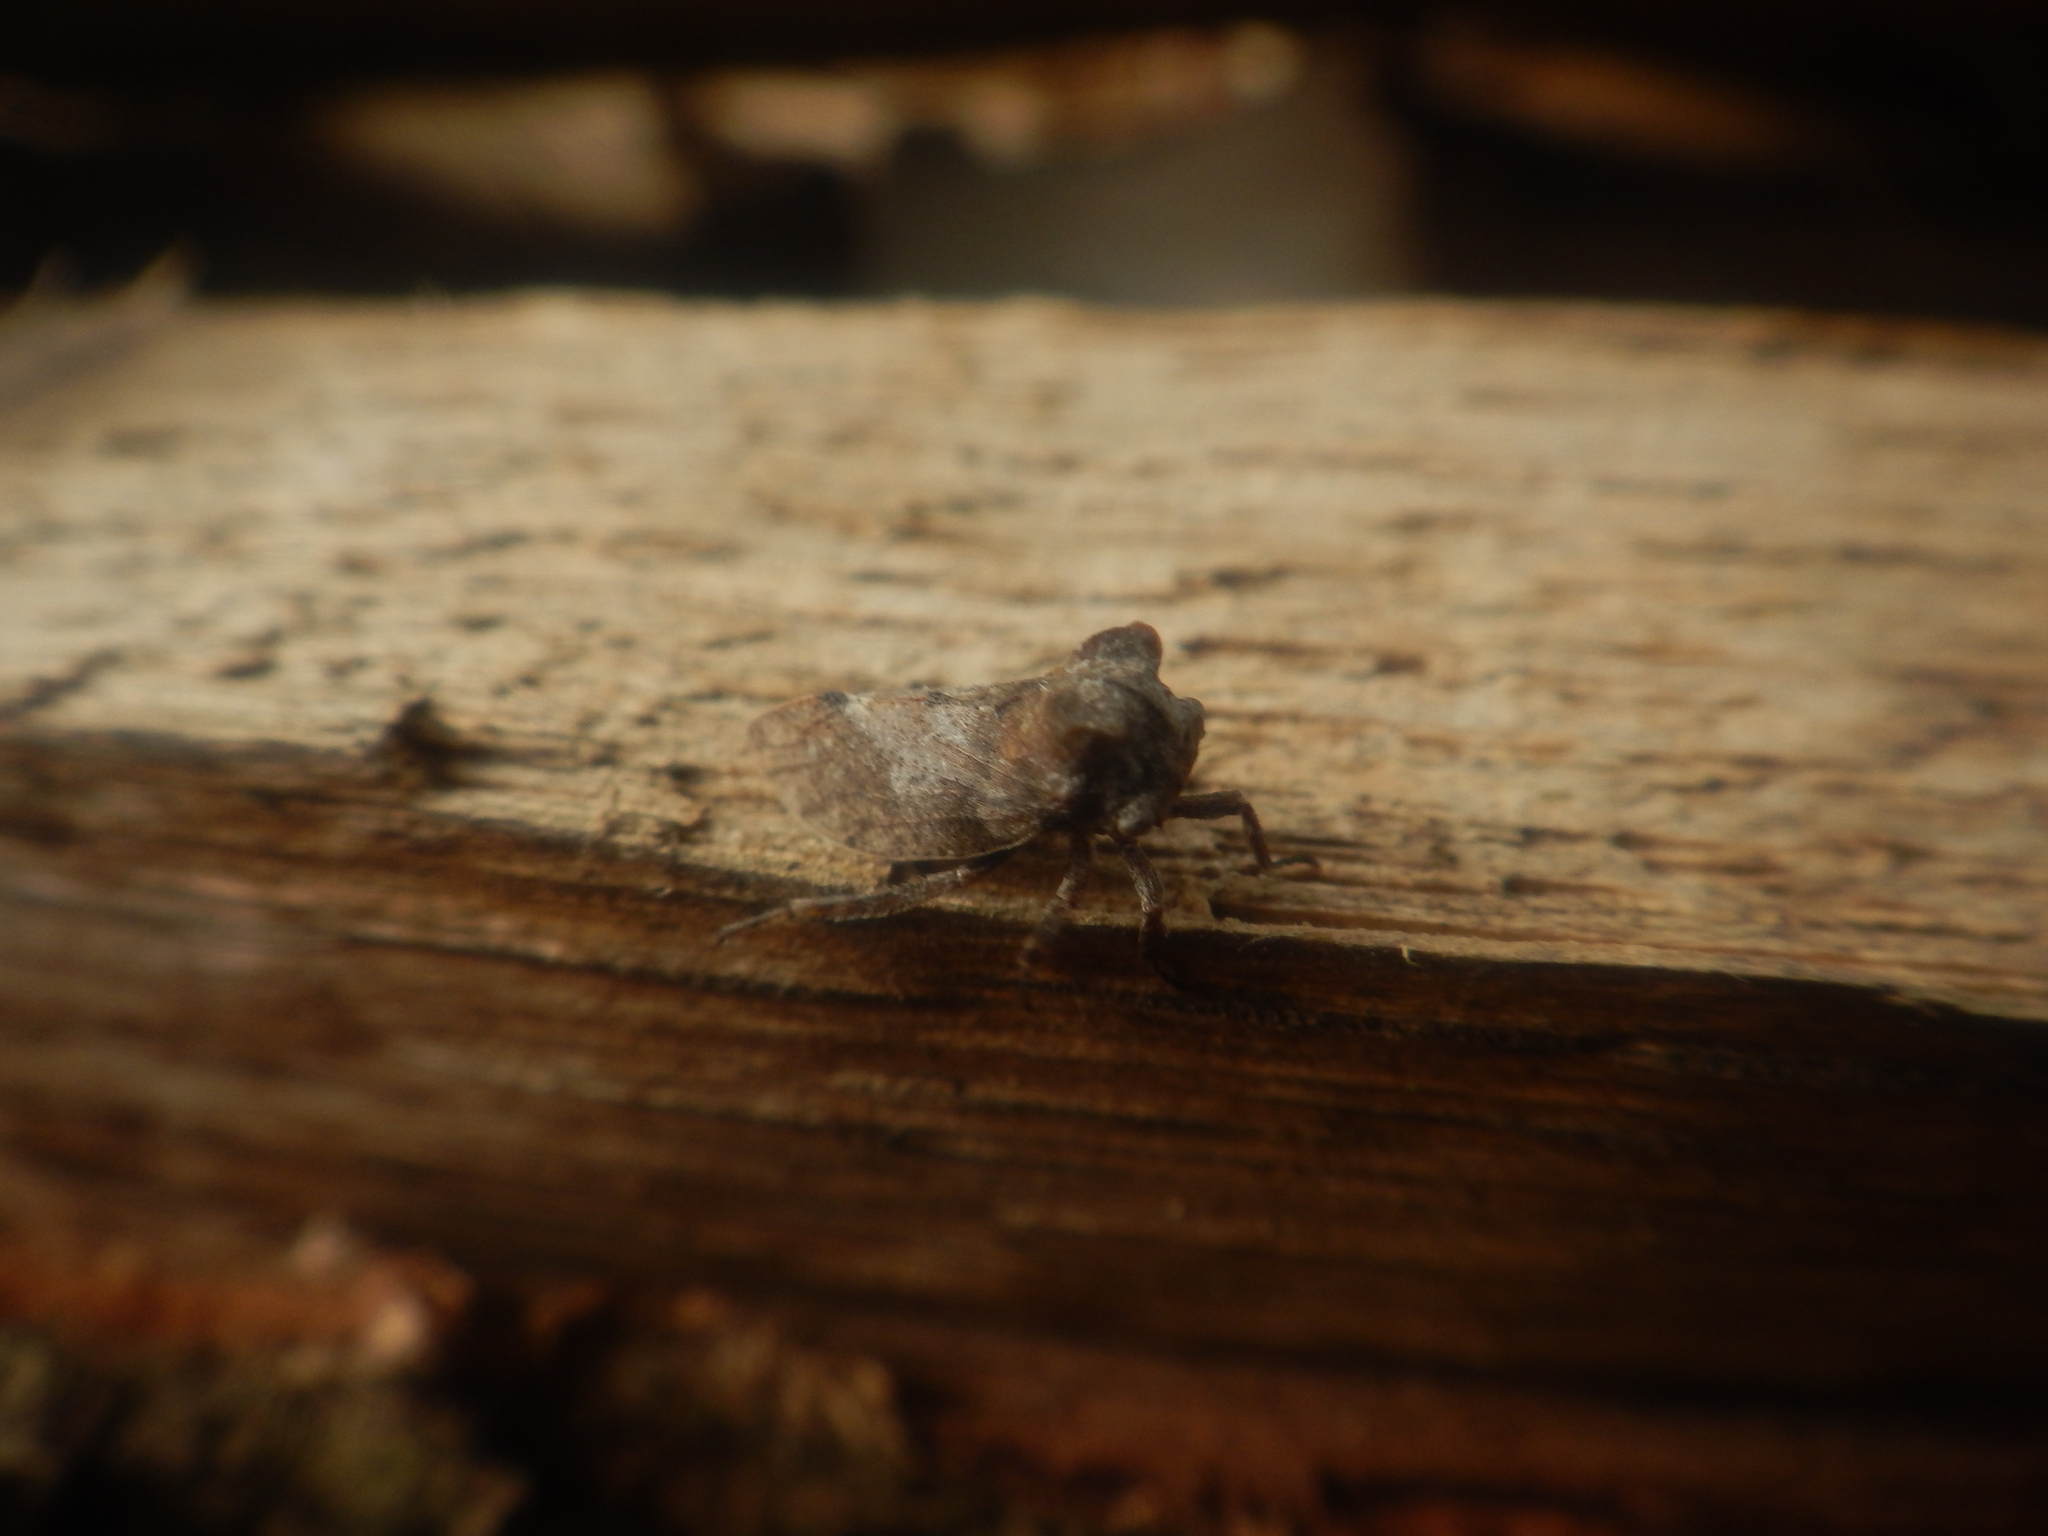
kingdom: Animalia
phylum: Arthropoda
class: Insecta
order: Hemiptera
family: Membracidae
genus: Microcentrus
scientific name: Microcentrus perdita
